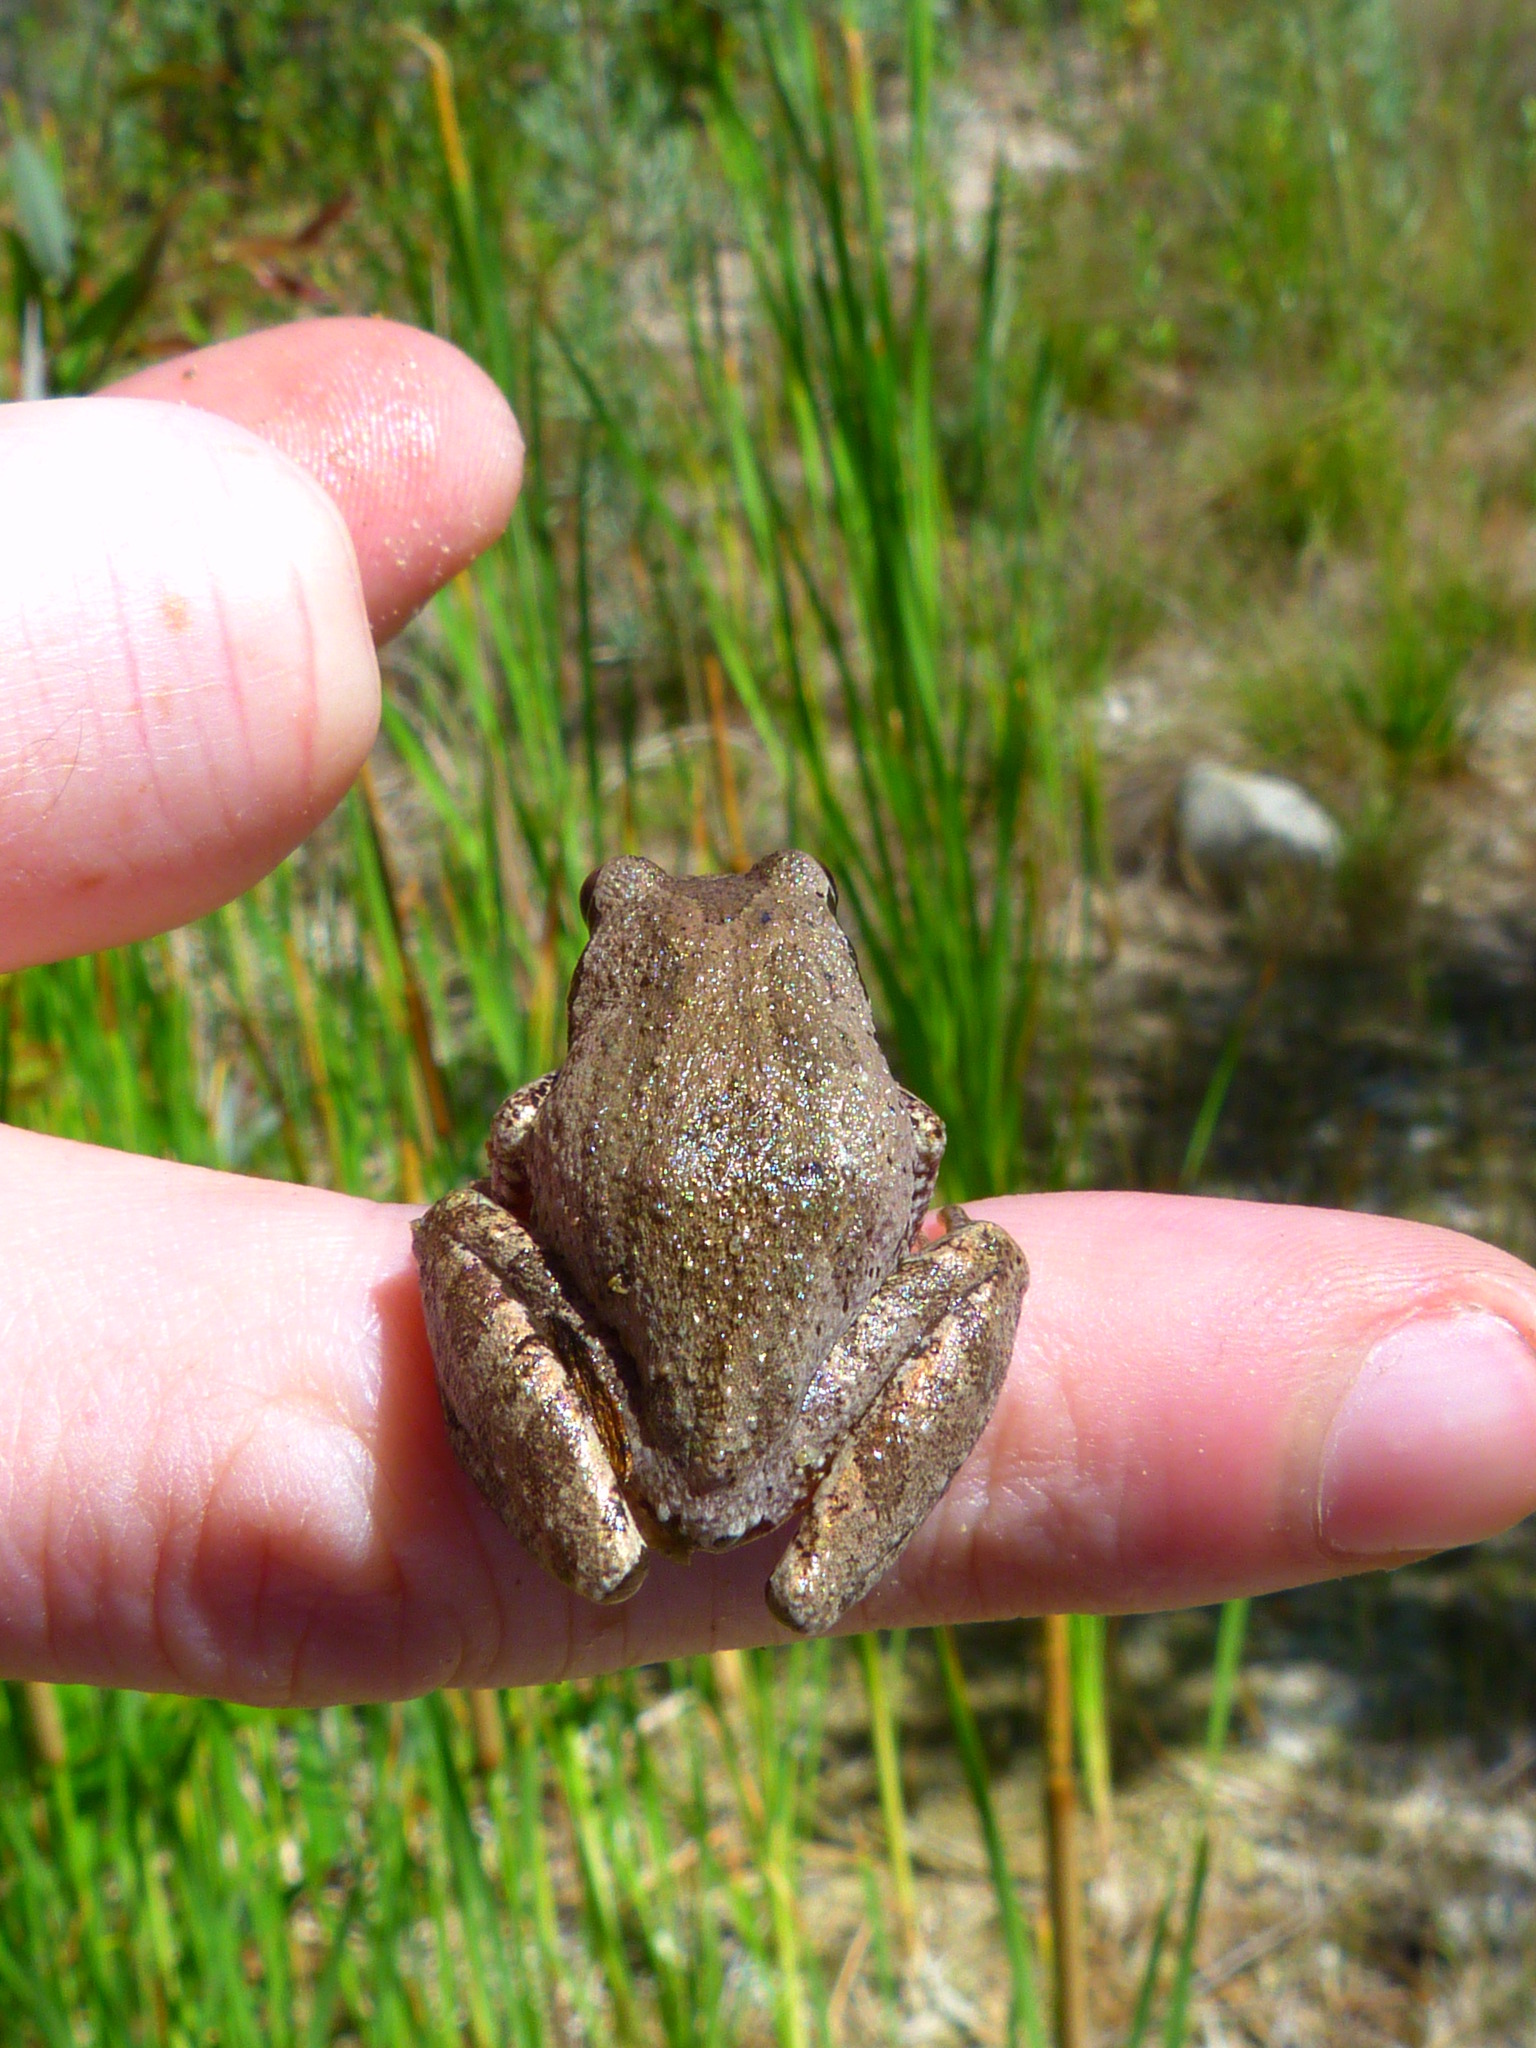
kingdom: Animalia
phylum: Chordata
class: Amphibia
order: Anura
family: Hylidae
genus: Pseudacris
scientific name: Pseudacris regilla
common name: Pacific chorus frog
